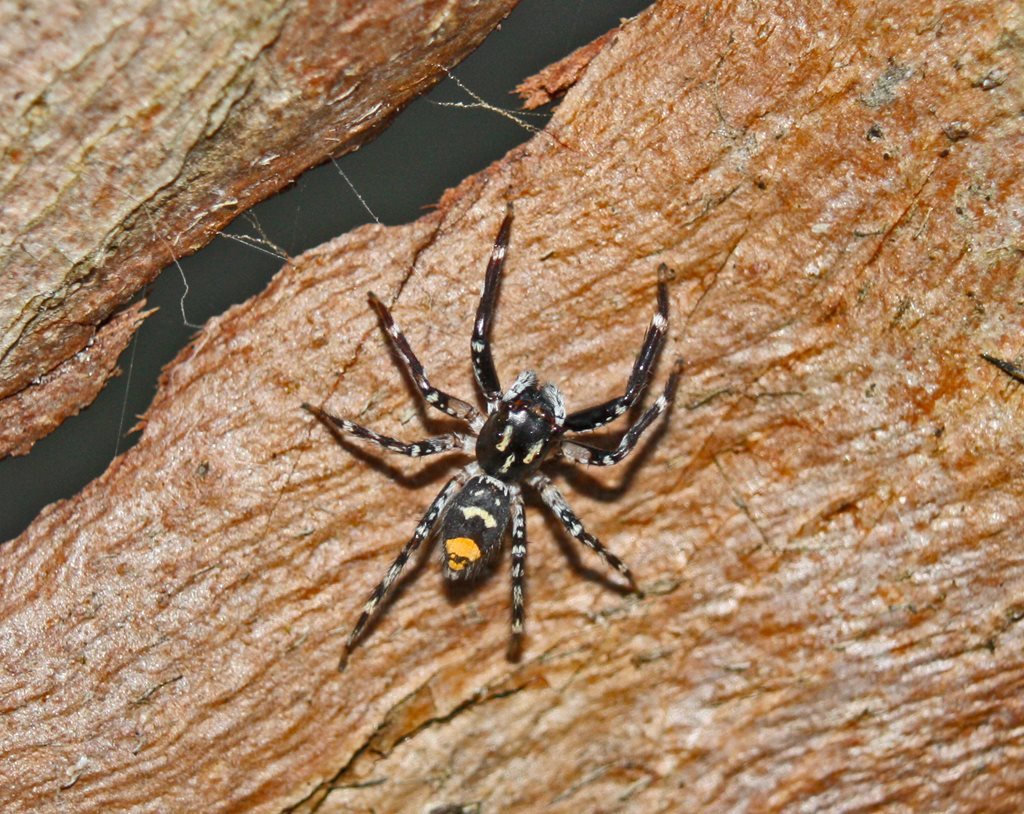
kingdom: Animalia
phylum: Arthropoda
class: Arachnida
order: Araneae
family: Salticidae
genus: Astia
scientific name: Astia
